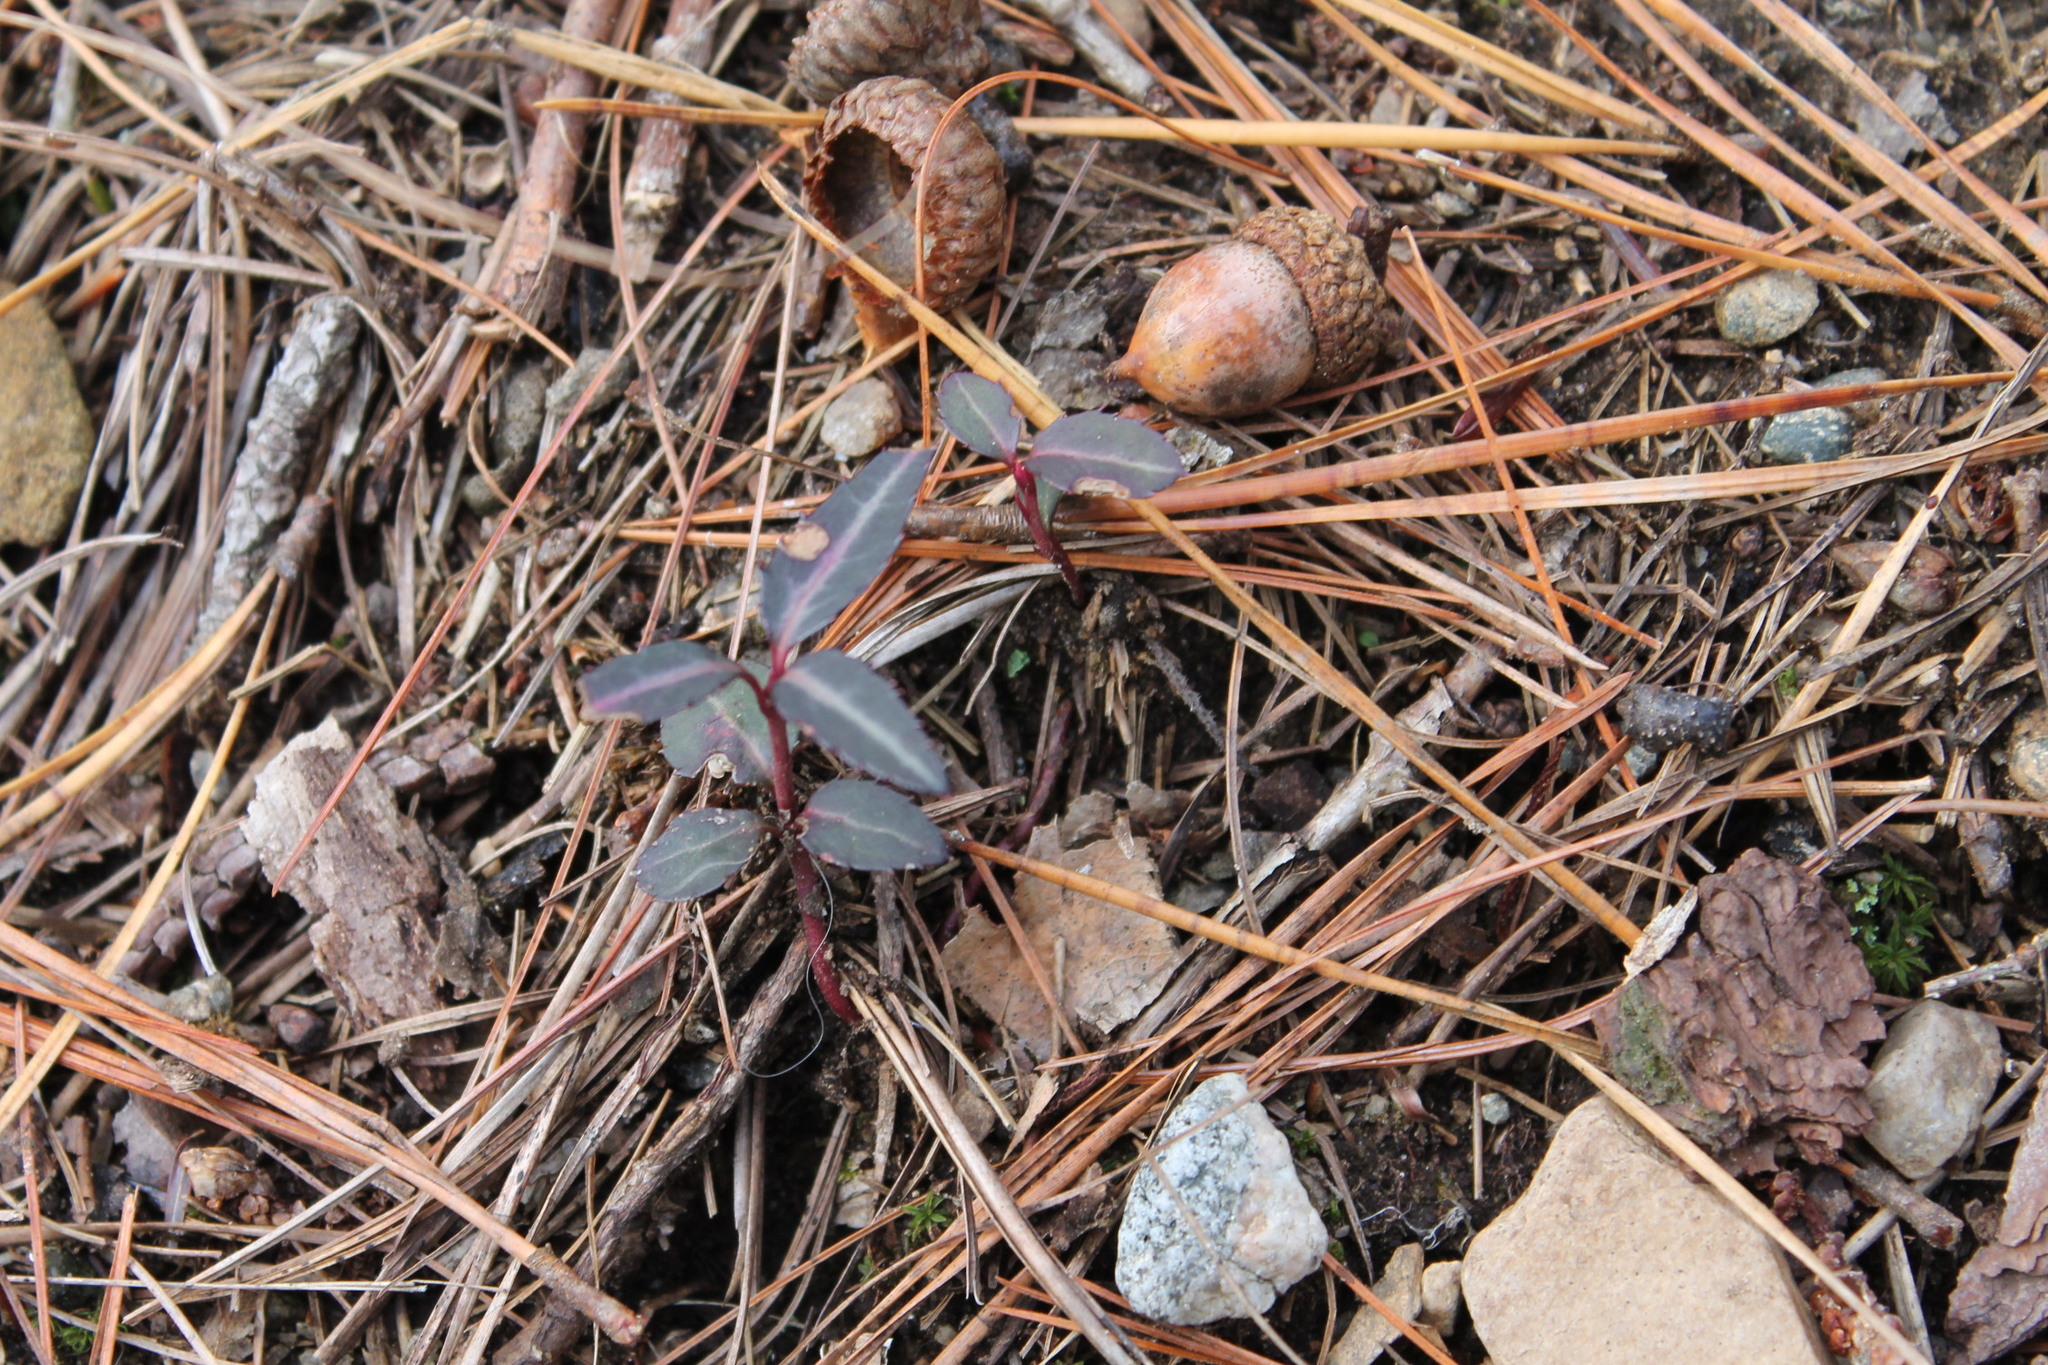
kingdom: Plantae
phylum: Tracheophyta
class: Magnoliopsida
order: Ericales
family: Ericaceae
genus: Chimaphila
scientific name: Chimaphila maculata
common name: Spotted pipsissewa
